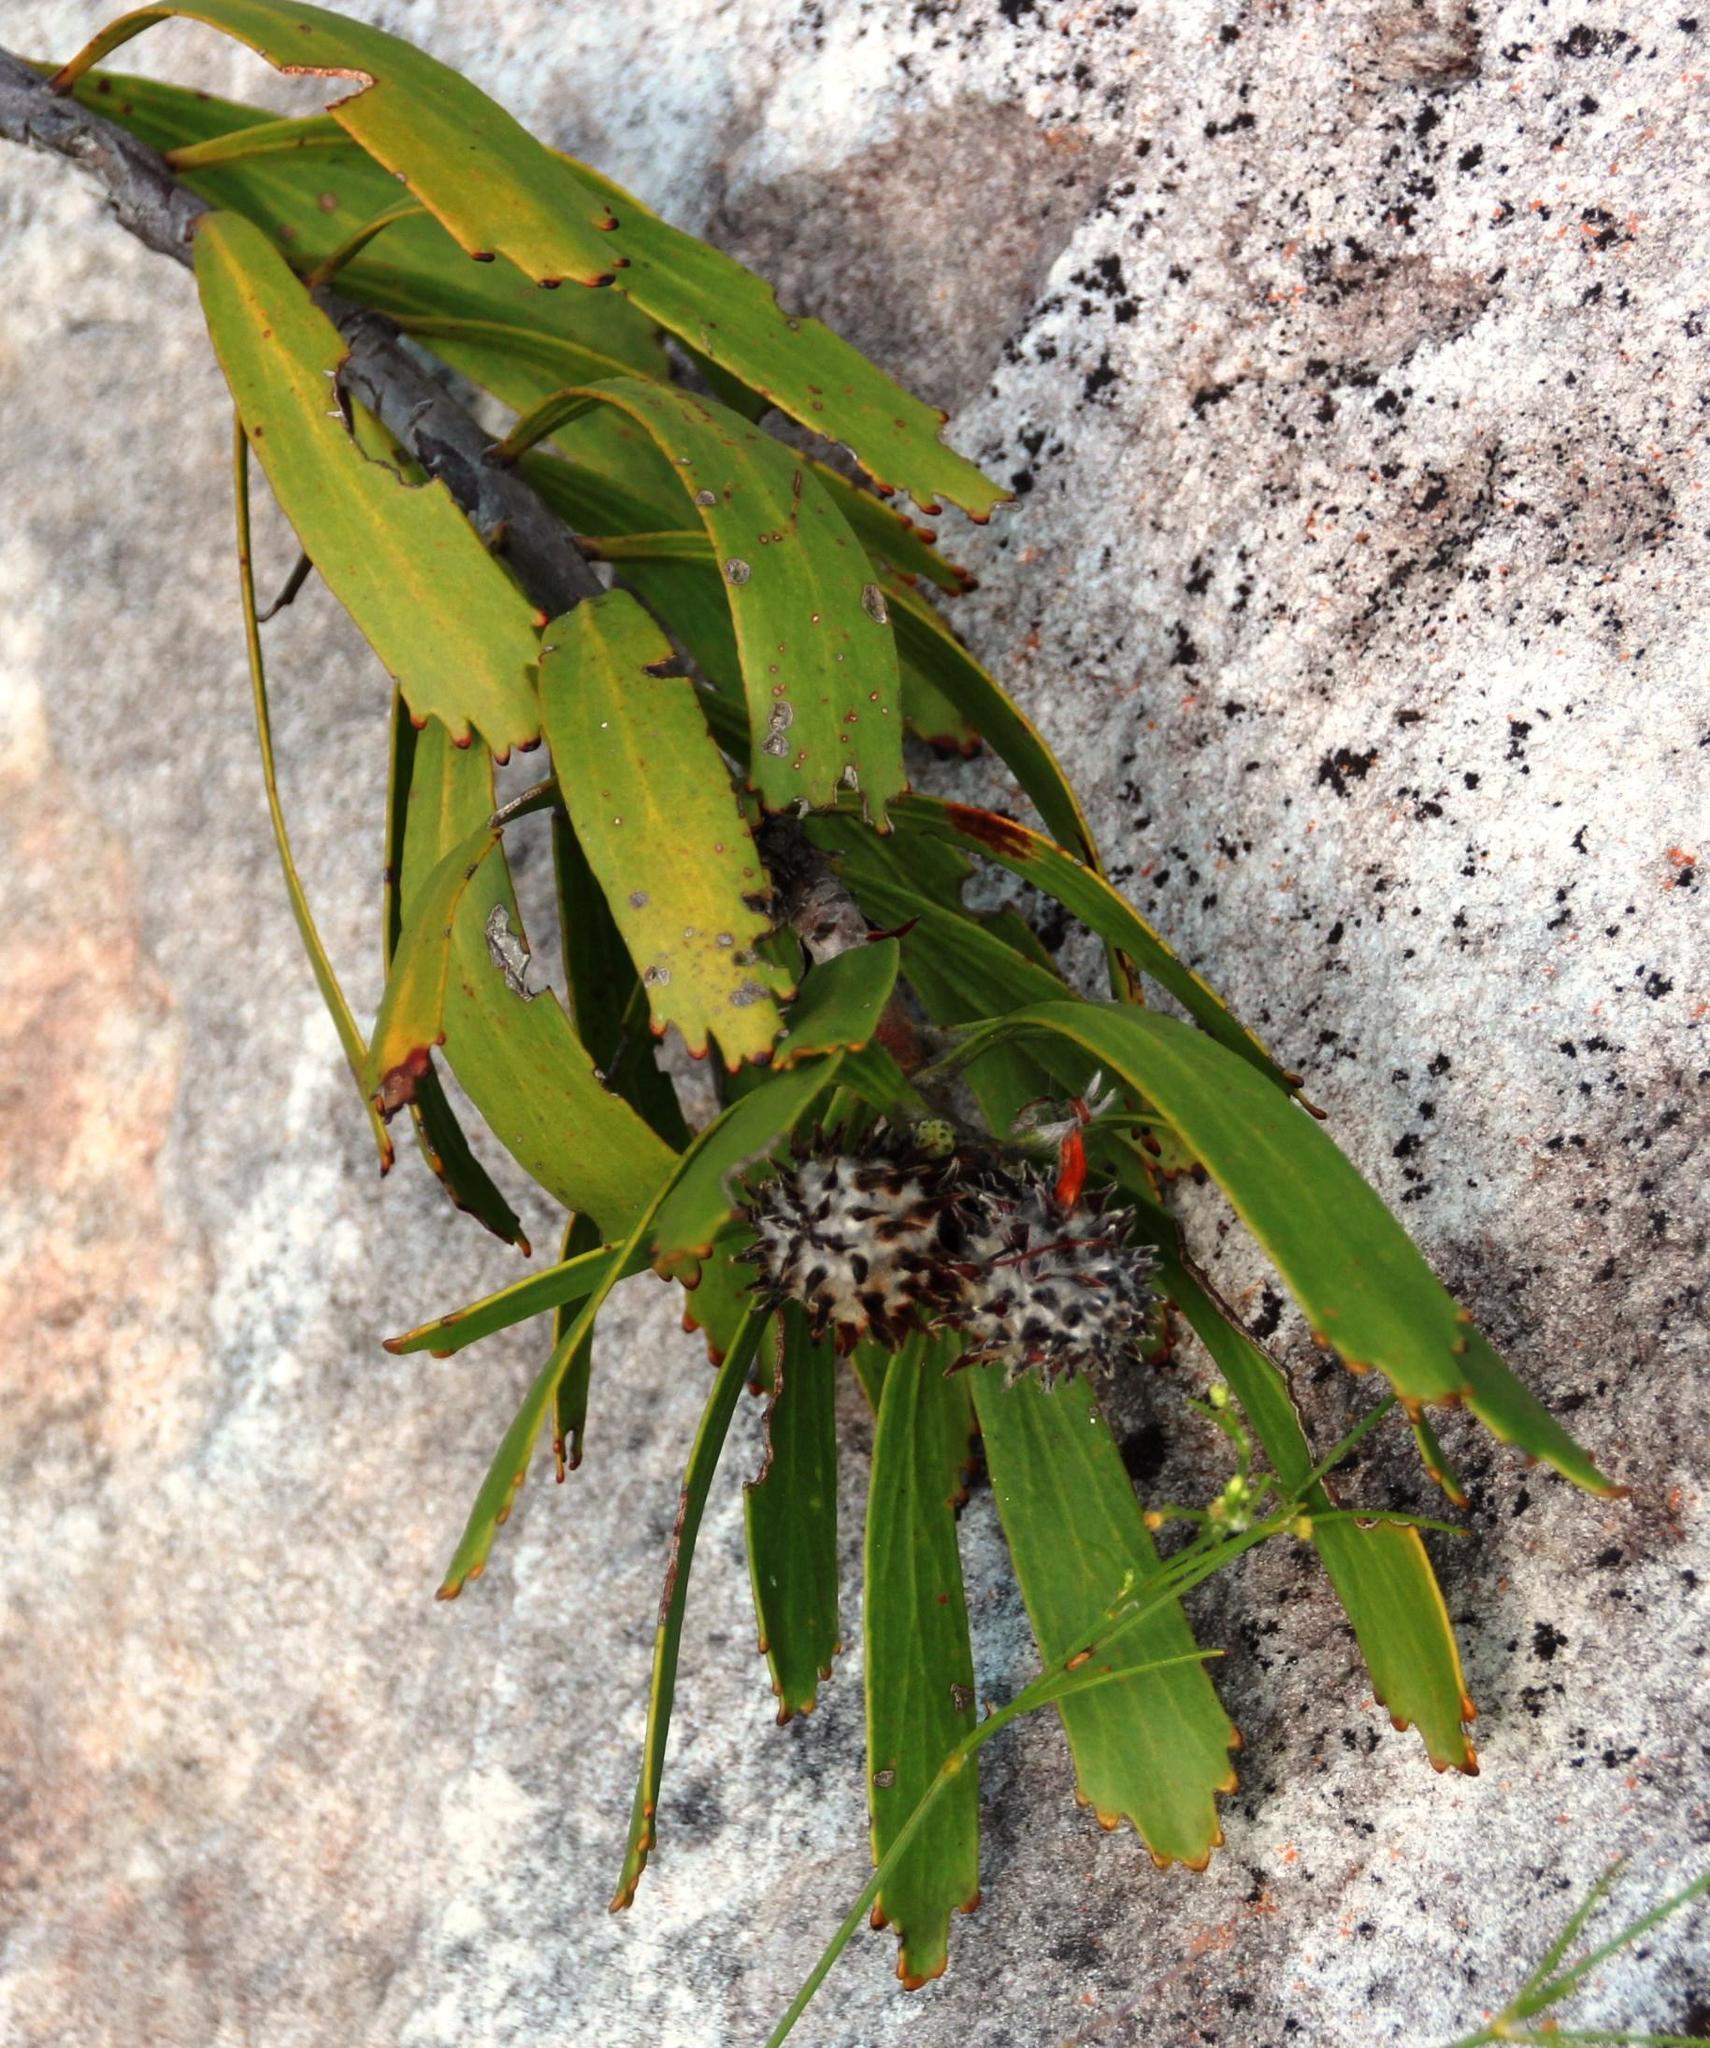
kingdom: Plantae
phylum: Tracheophyta
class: Magnoliopsida
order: Proteales
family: Proteaceae
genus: Leucospermum
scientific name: Leucospermum cuneiforme
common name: Common pincushion
